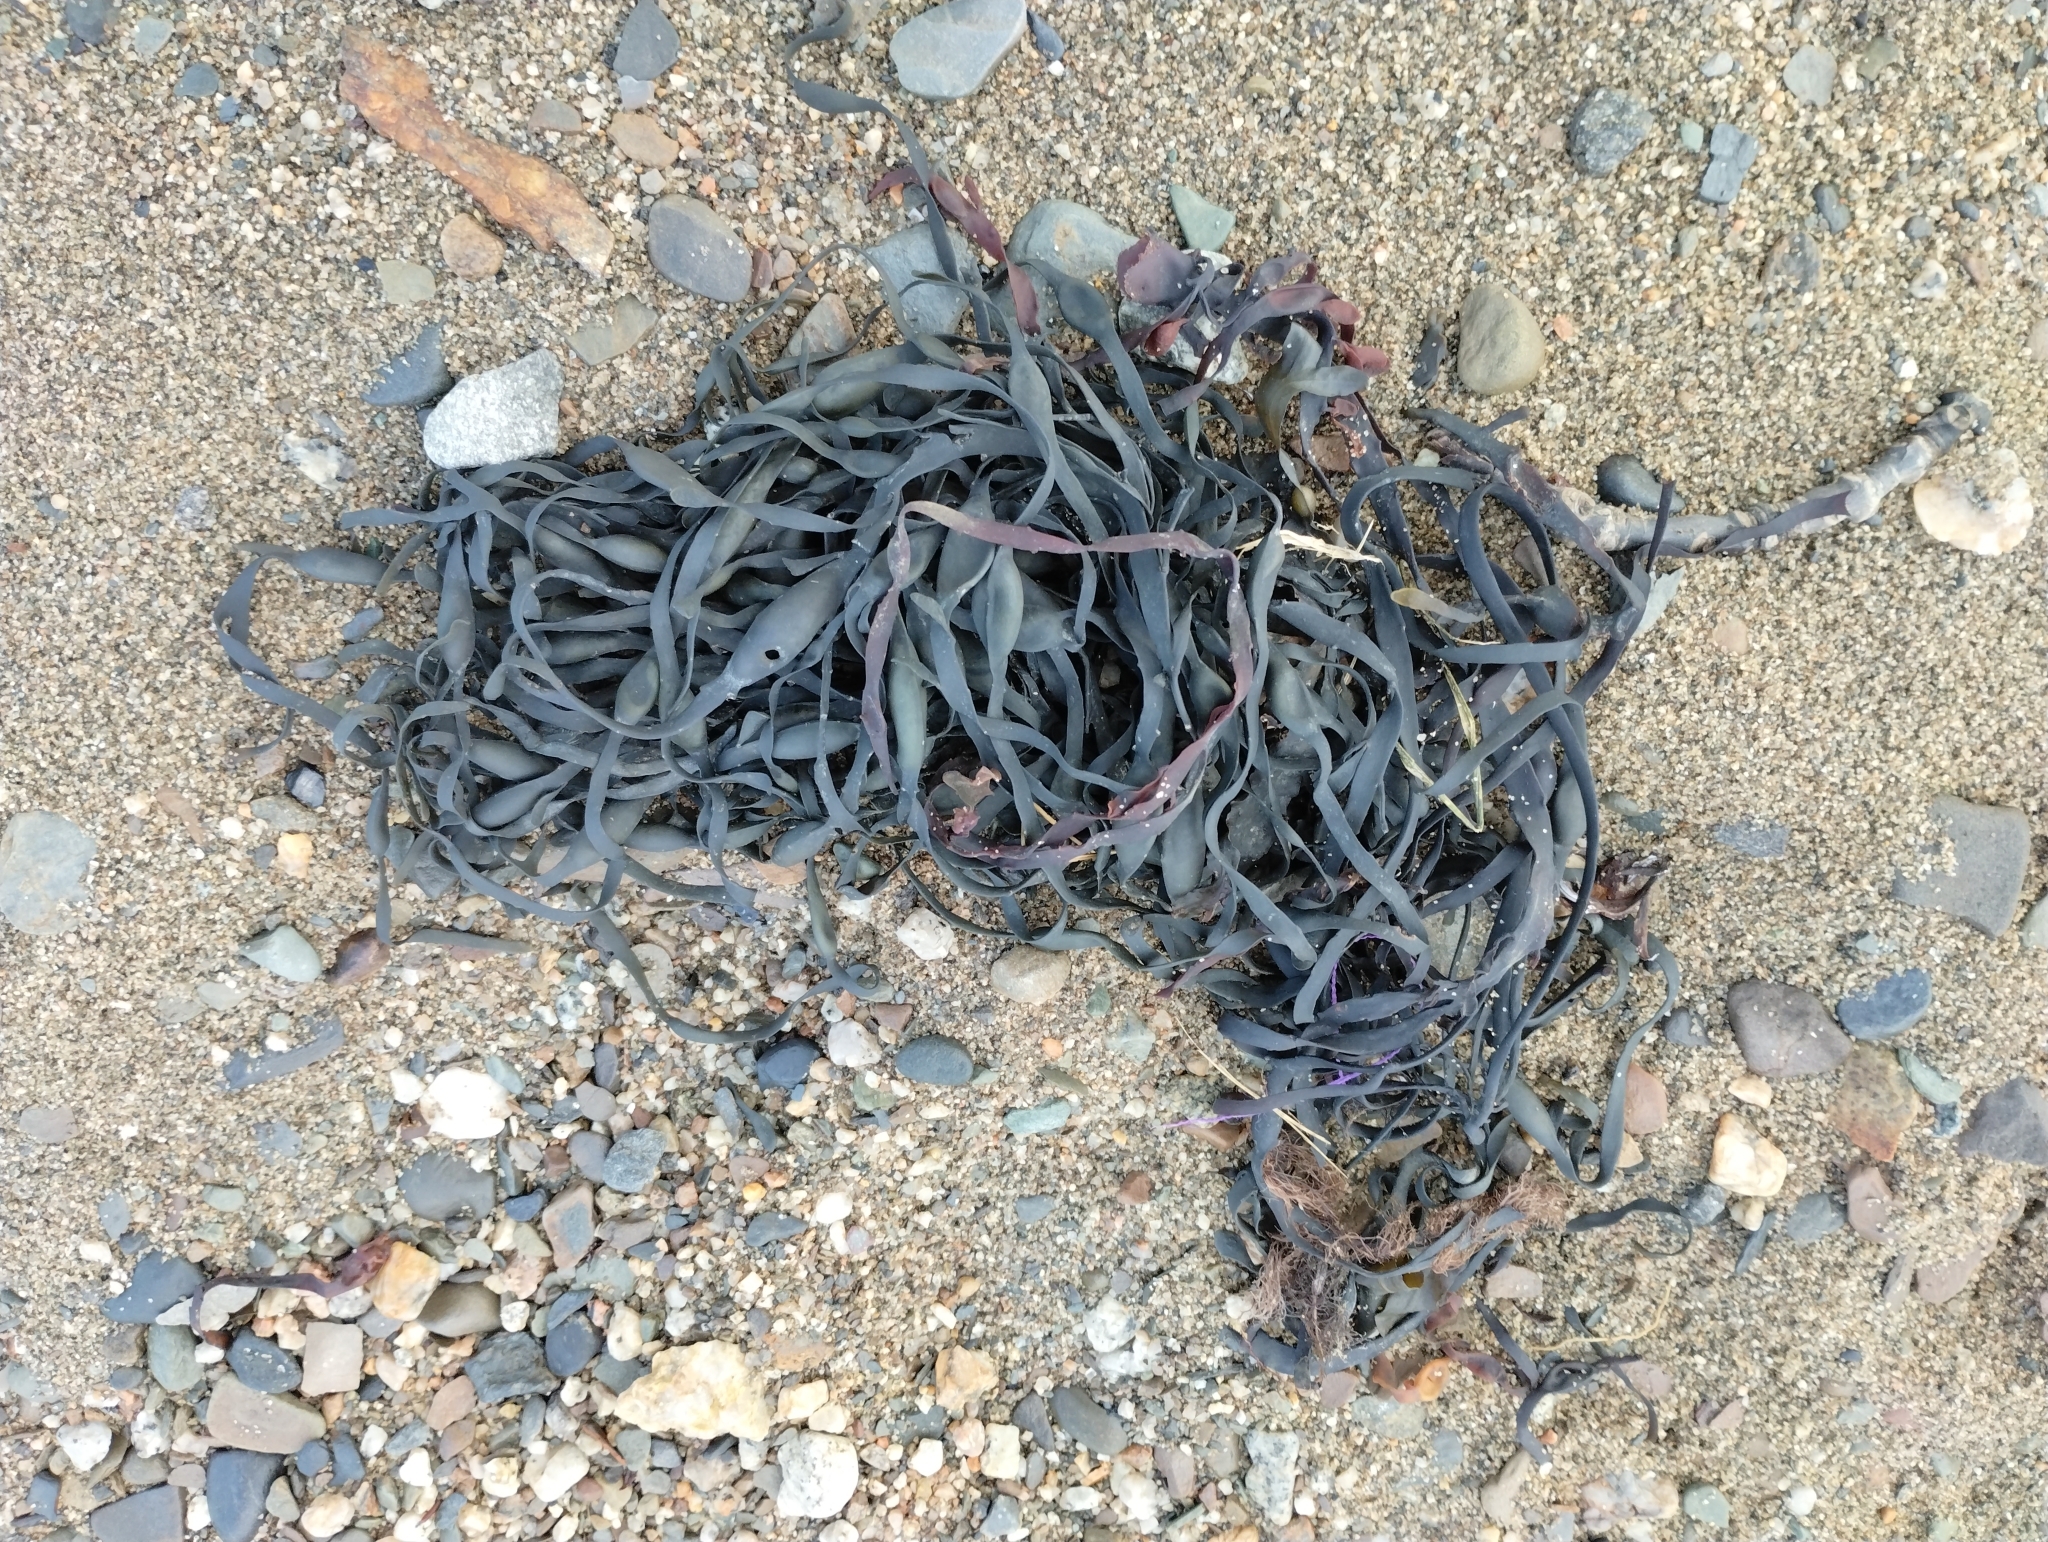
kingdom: Chromista
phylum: Ochrophyta
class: Phaeophyceae
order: Fucales
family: Fucaceae
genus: Ascophyllum
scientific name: Ascophyllum nodosum
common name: Knotted wrack
